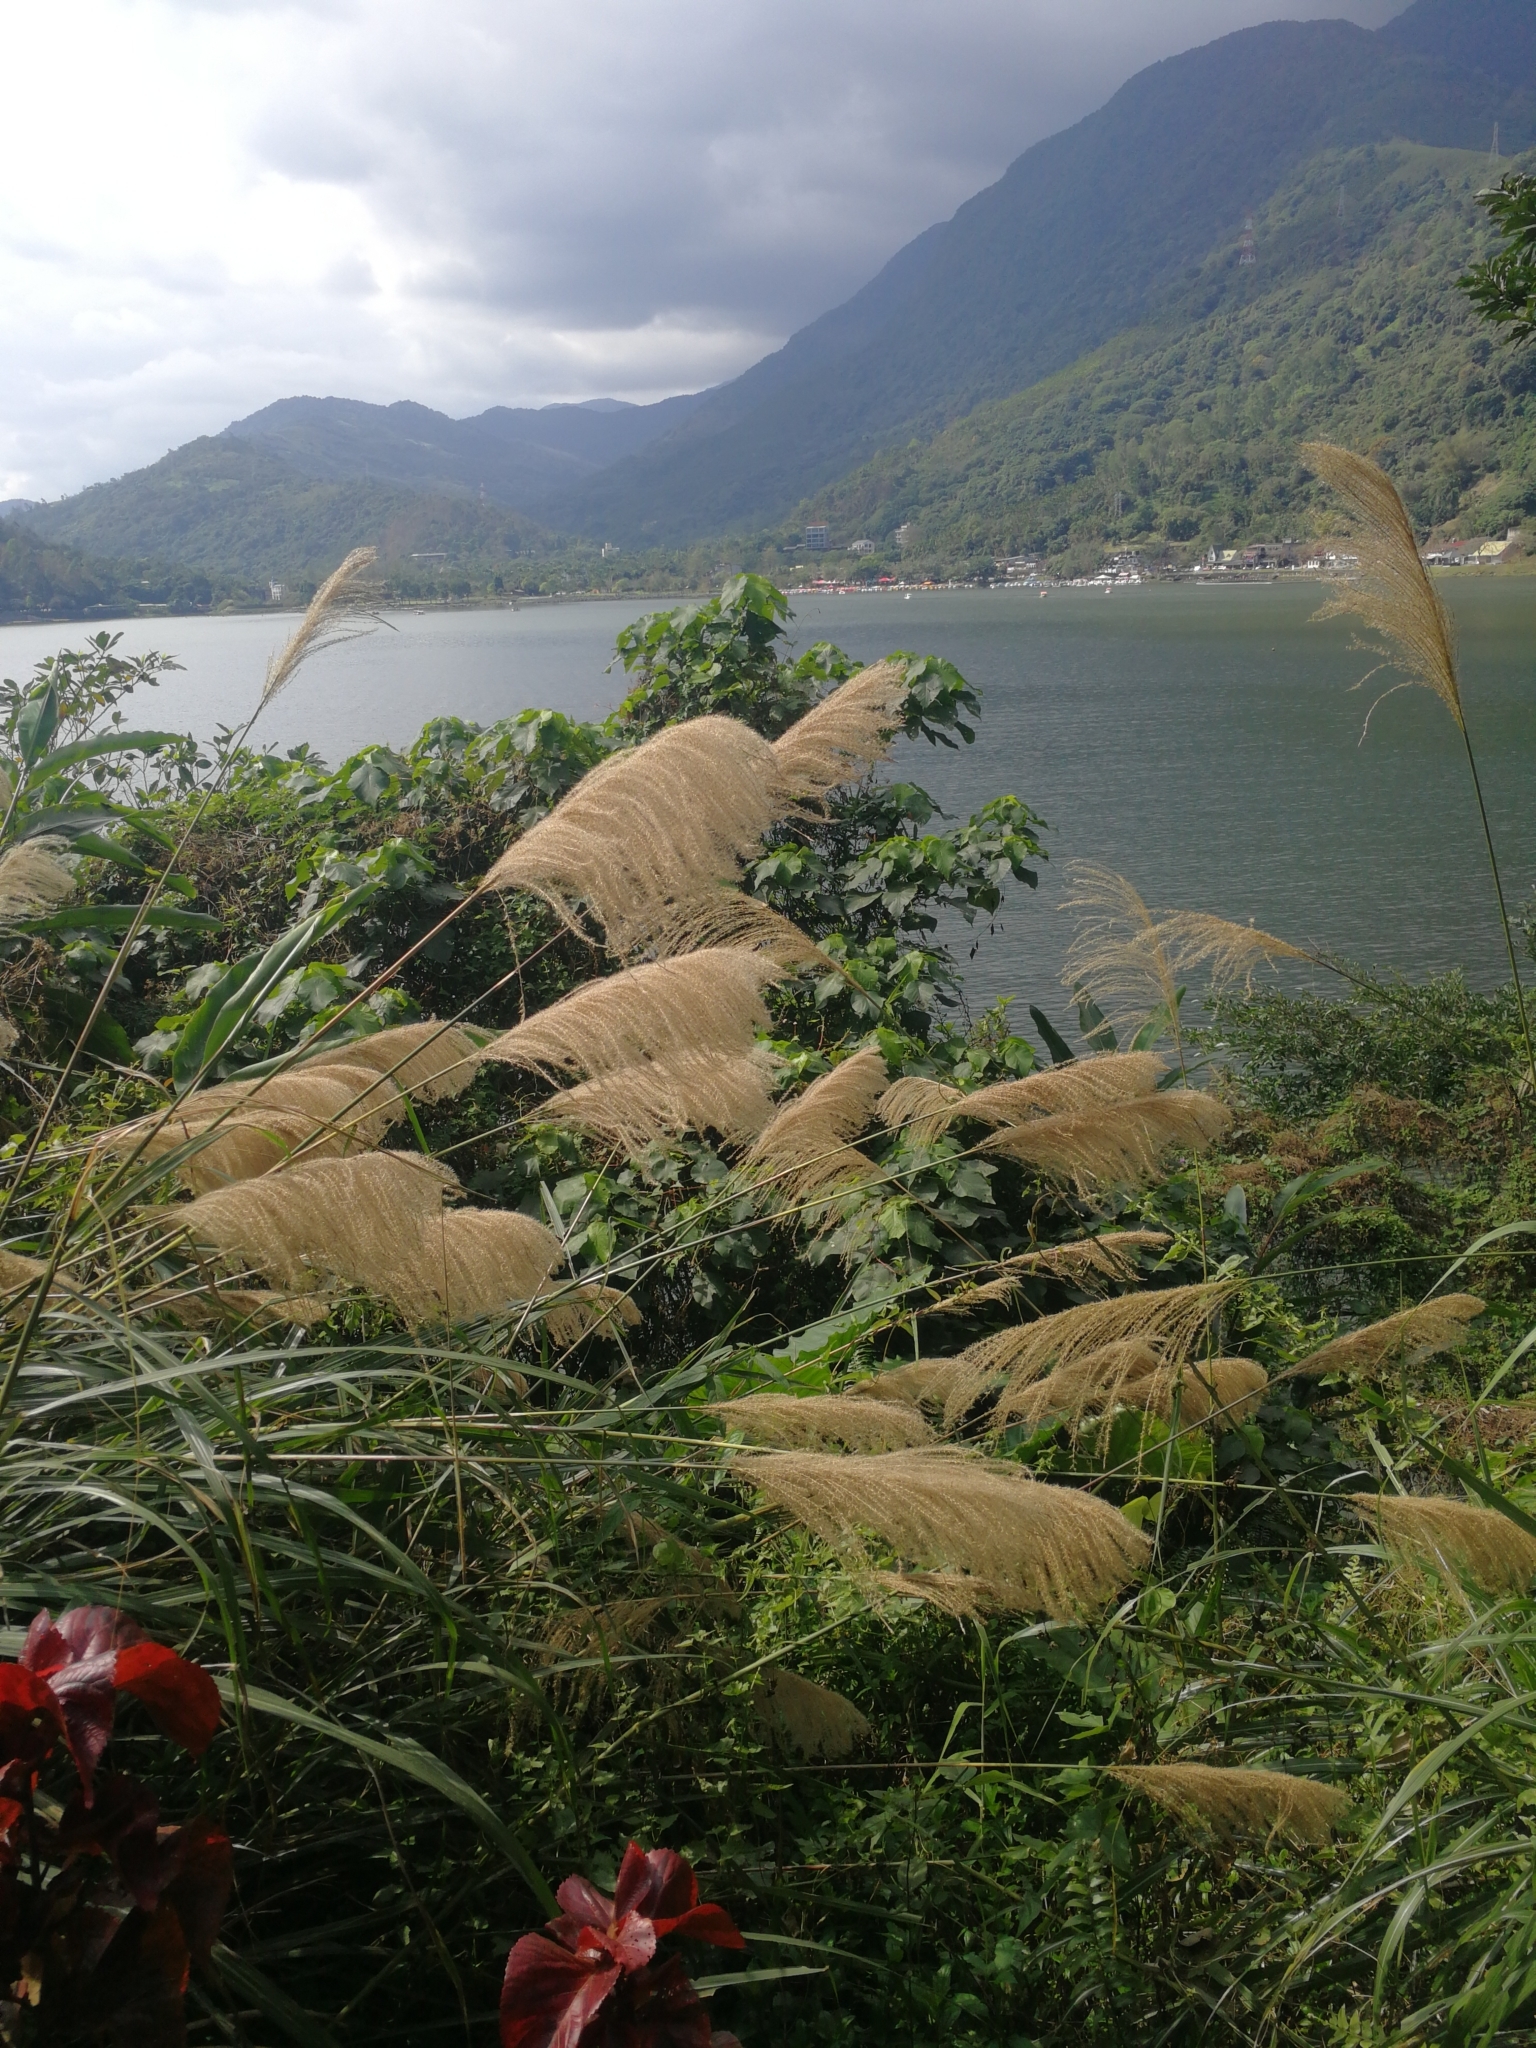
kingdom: Plantae
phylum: Tracheophyta
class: Liliopsida
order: Poales
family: Poaceae
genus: Miscanthus
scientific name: Miscanthus sinensis
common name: Chinese silvergrass
